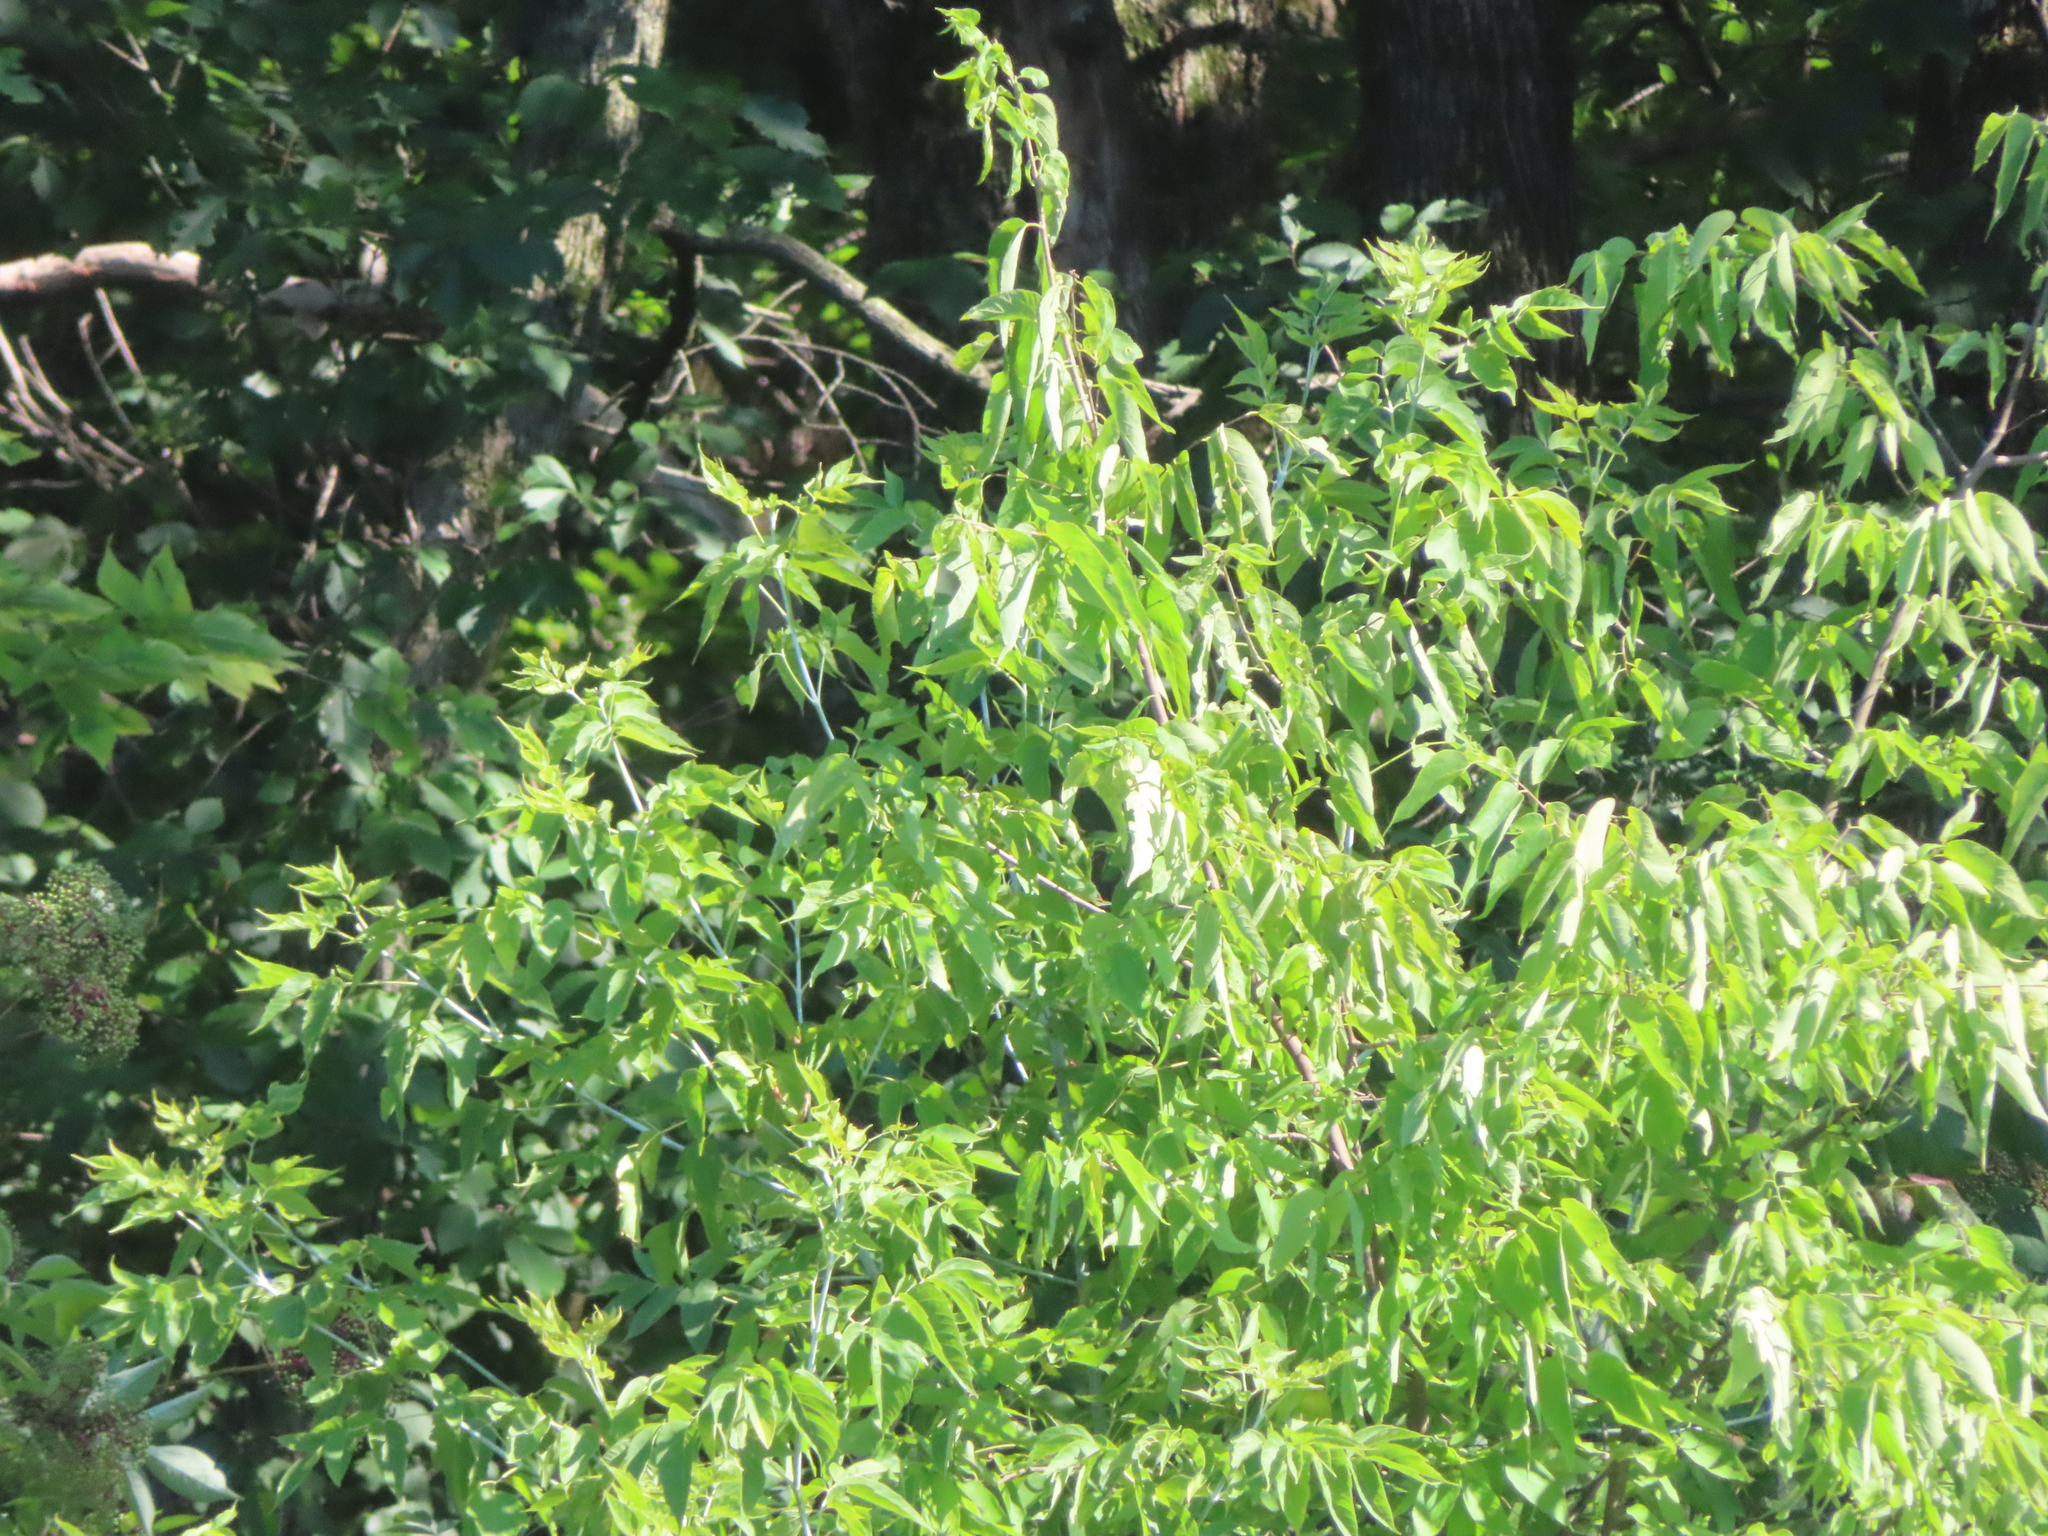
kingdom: Plantae
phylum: Tracheophyta
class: Magnoliopsida
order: Sapindales
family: Sapindaceae
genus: Acer
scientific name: Acer negundo
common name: Ashleaf maple
